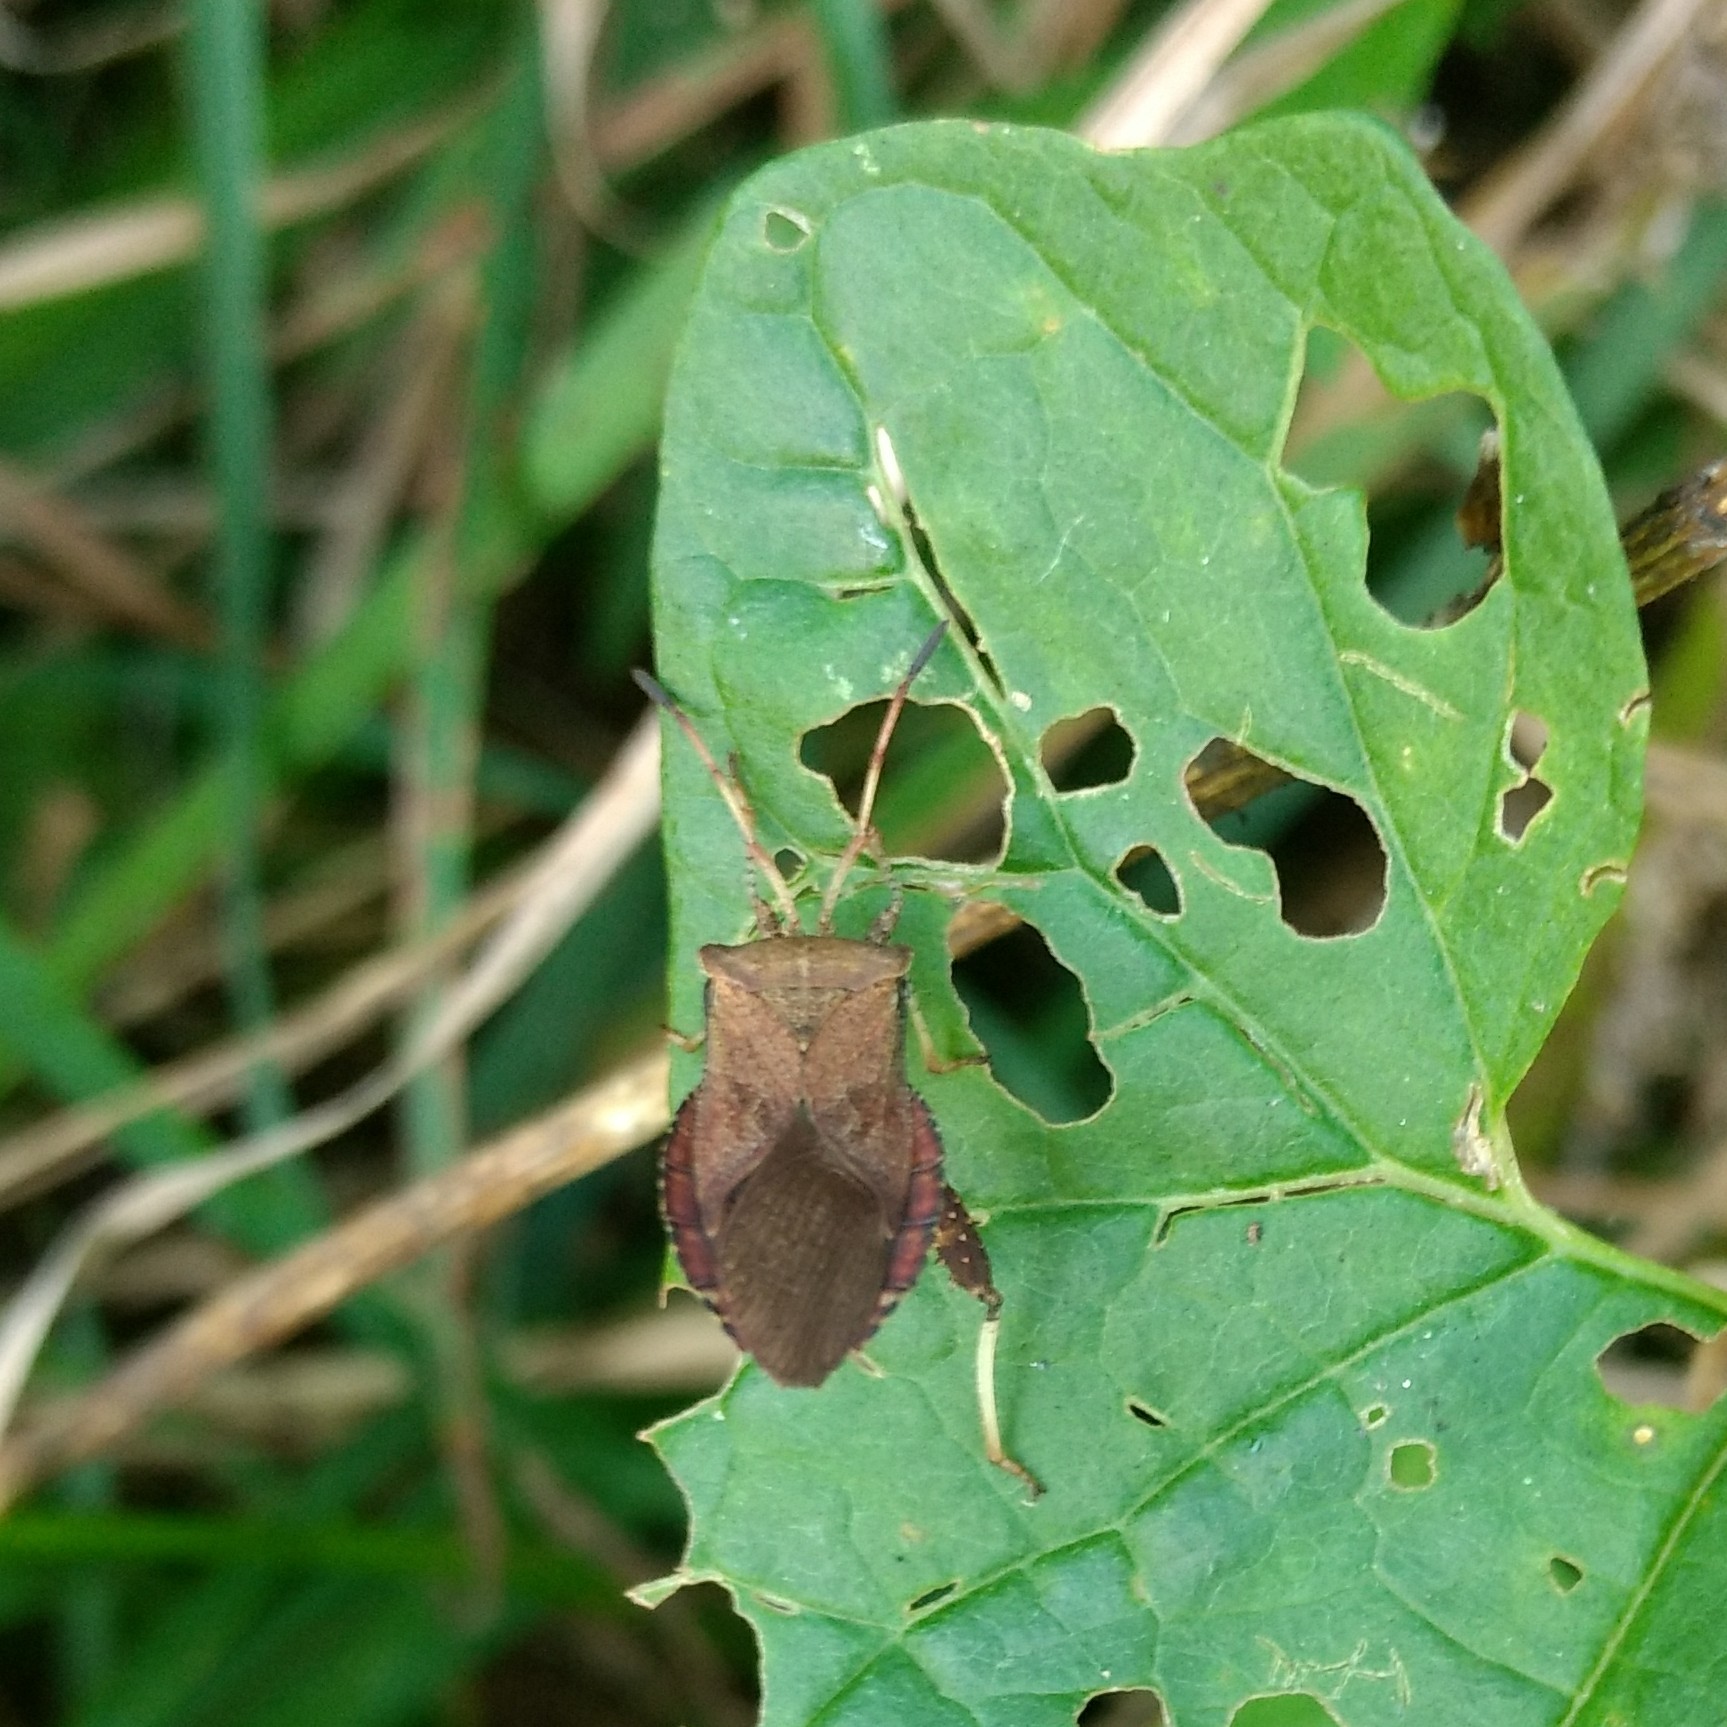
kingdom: Animalia
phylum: Arthropoda
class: Insecta
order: Hemiptera
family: Coreidae
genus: Euthochtha
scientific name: Euthochtha galeator
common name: Helmeted squash bug
